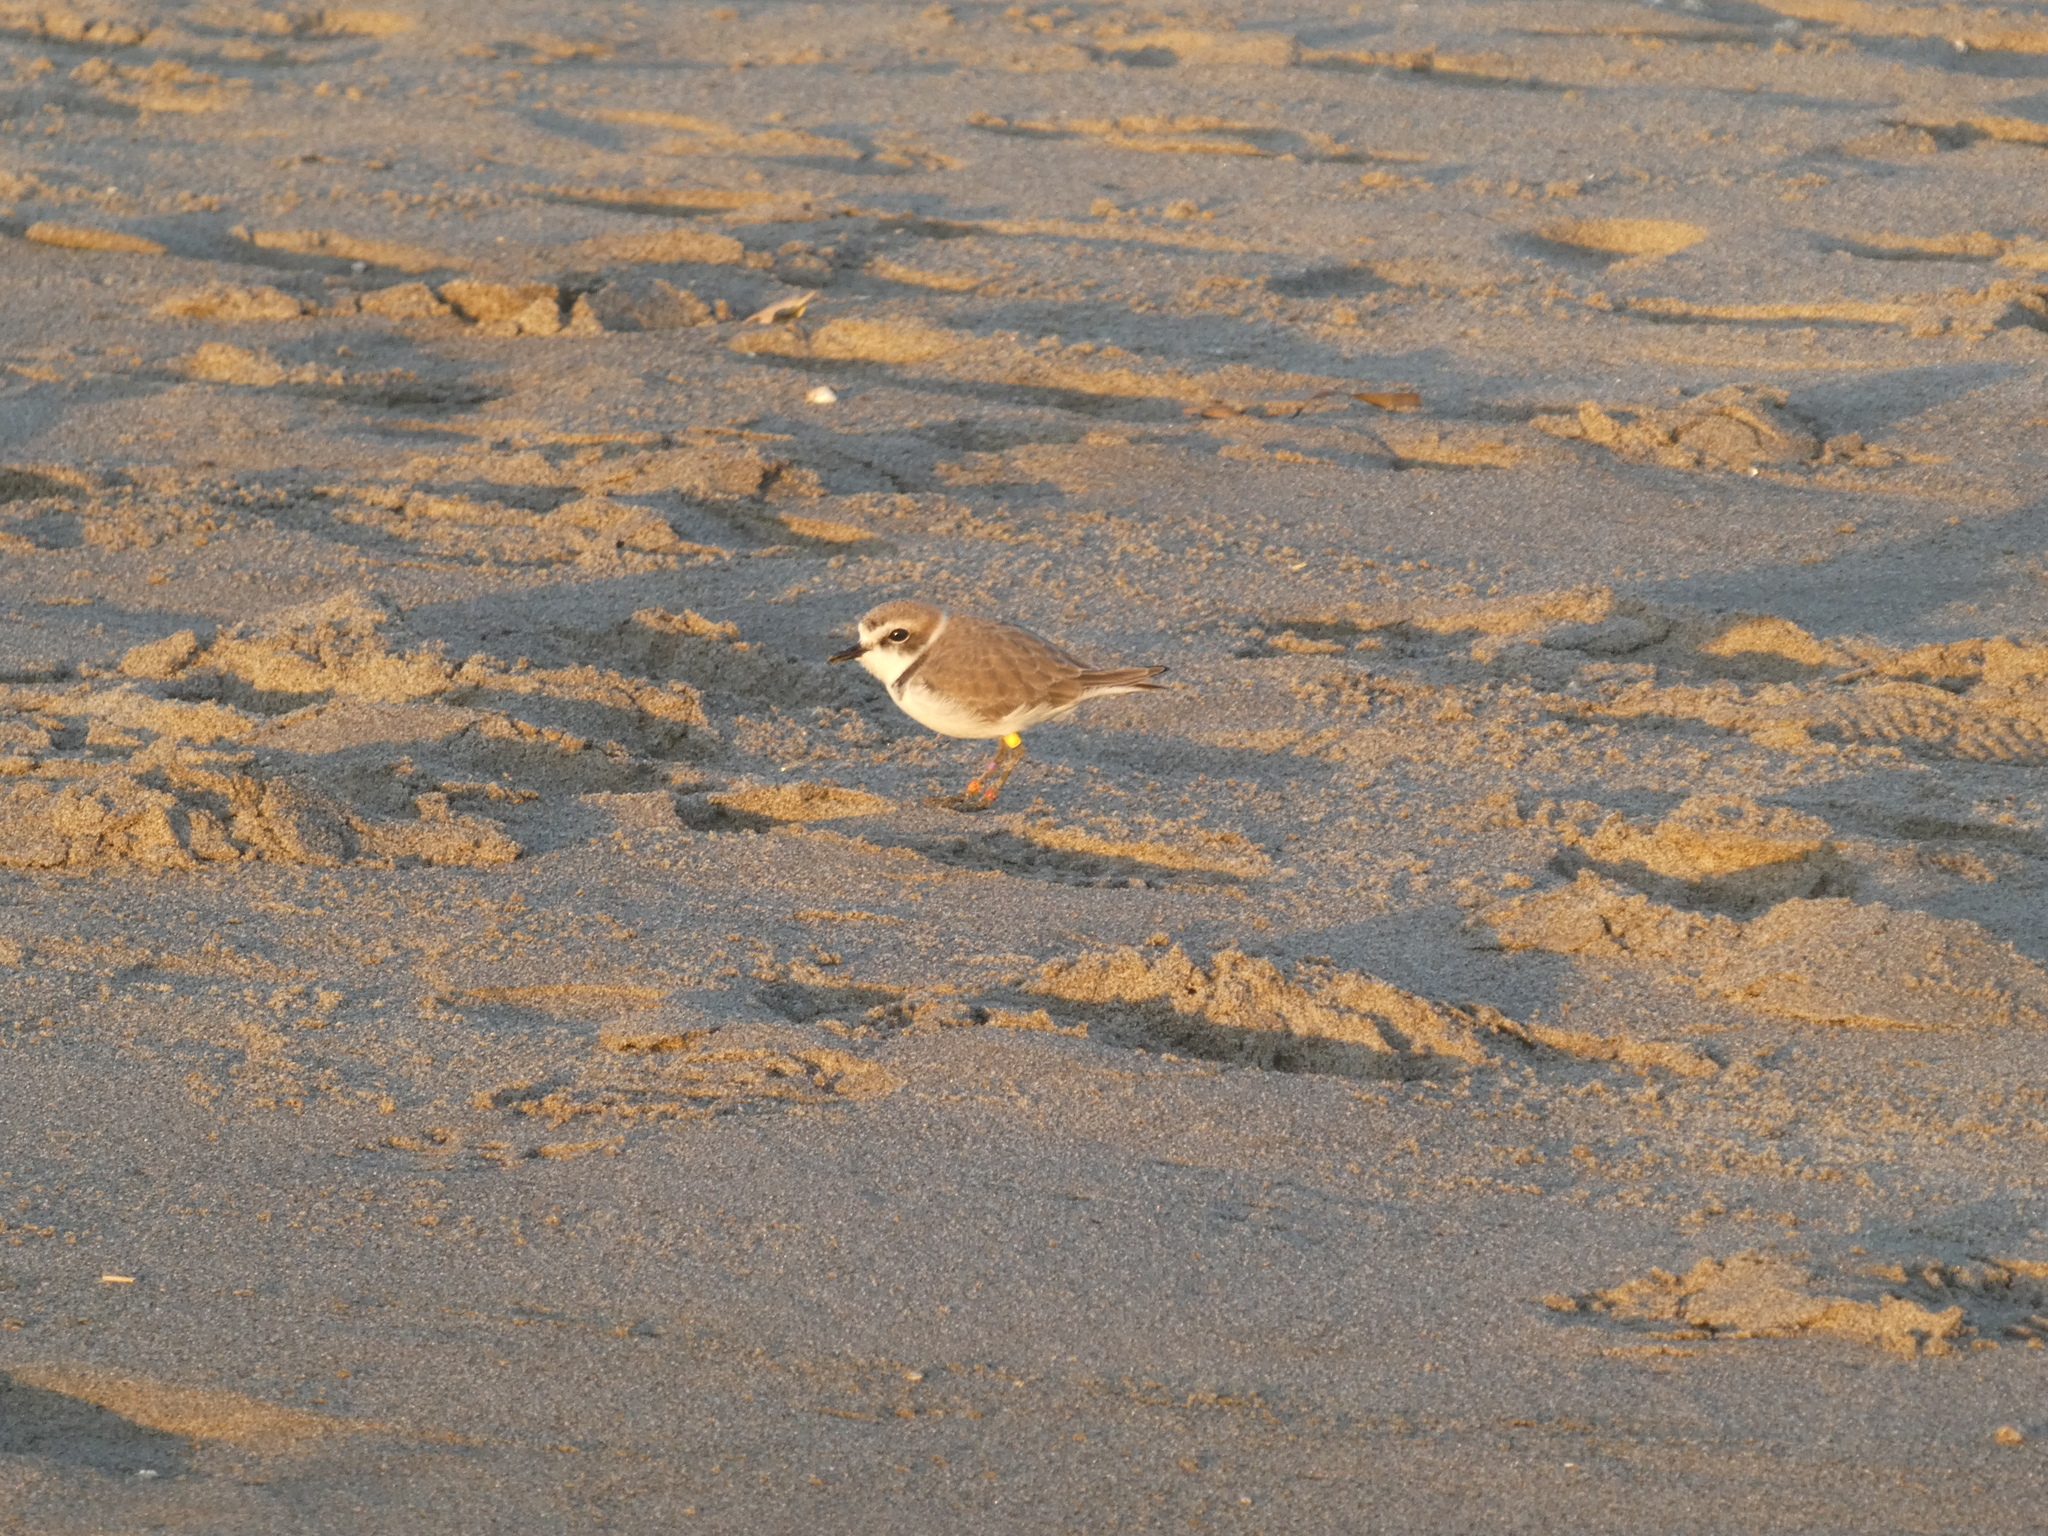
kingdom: Animalia
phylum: Chordata
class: Aves
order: Charadriiformes
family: Charadriidae
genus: Anarhynchus
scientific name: Anarhynchus
